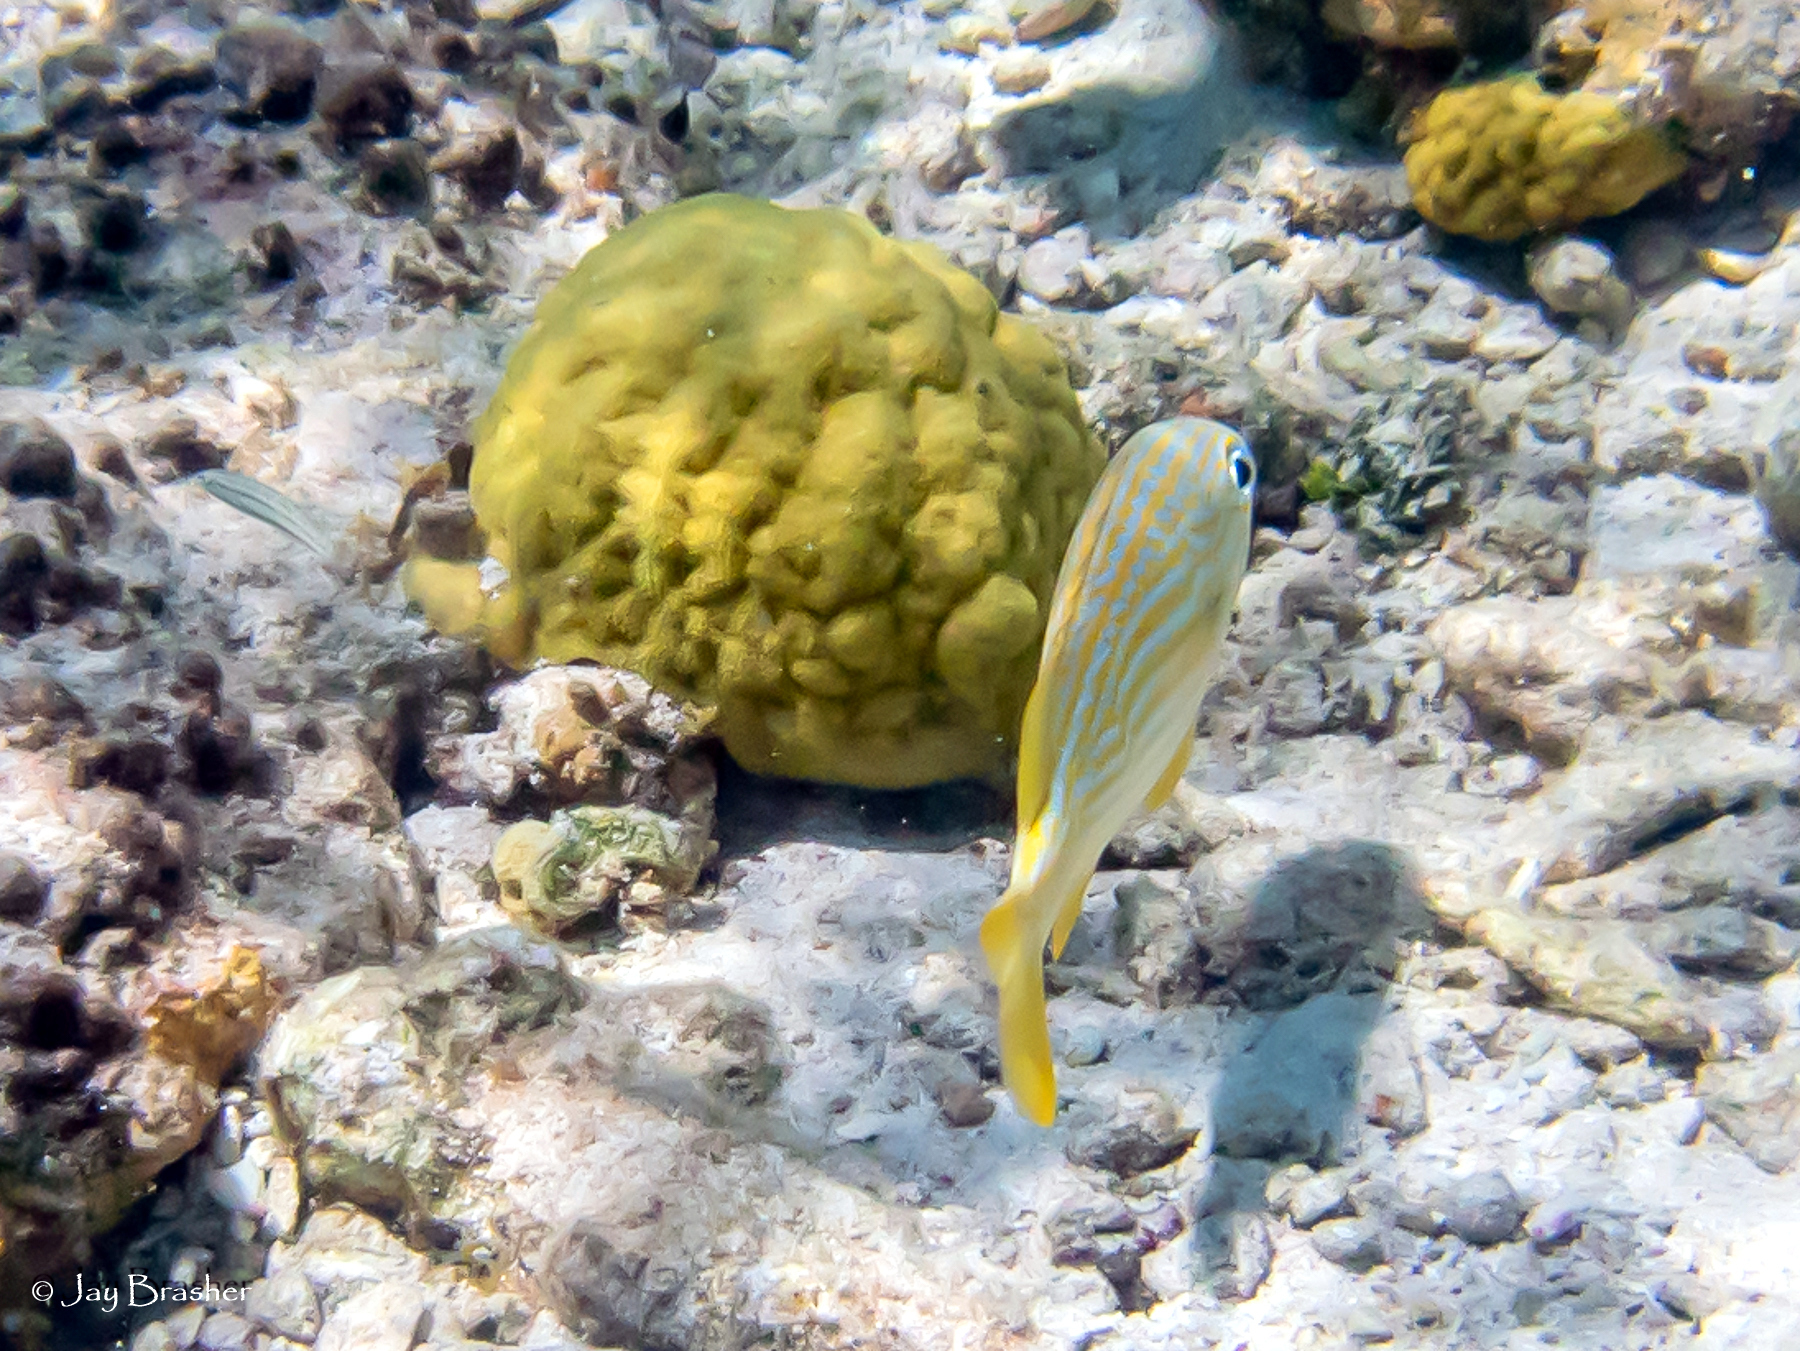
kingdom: Animalia
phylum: Chordata
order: Perciformes
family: Haemulidae
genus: Haemulon
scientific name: Haemulon flavolineatum
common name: French grunt
